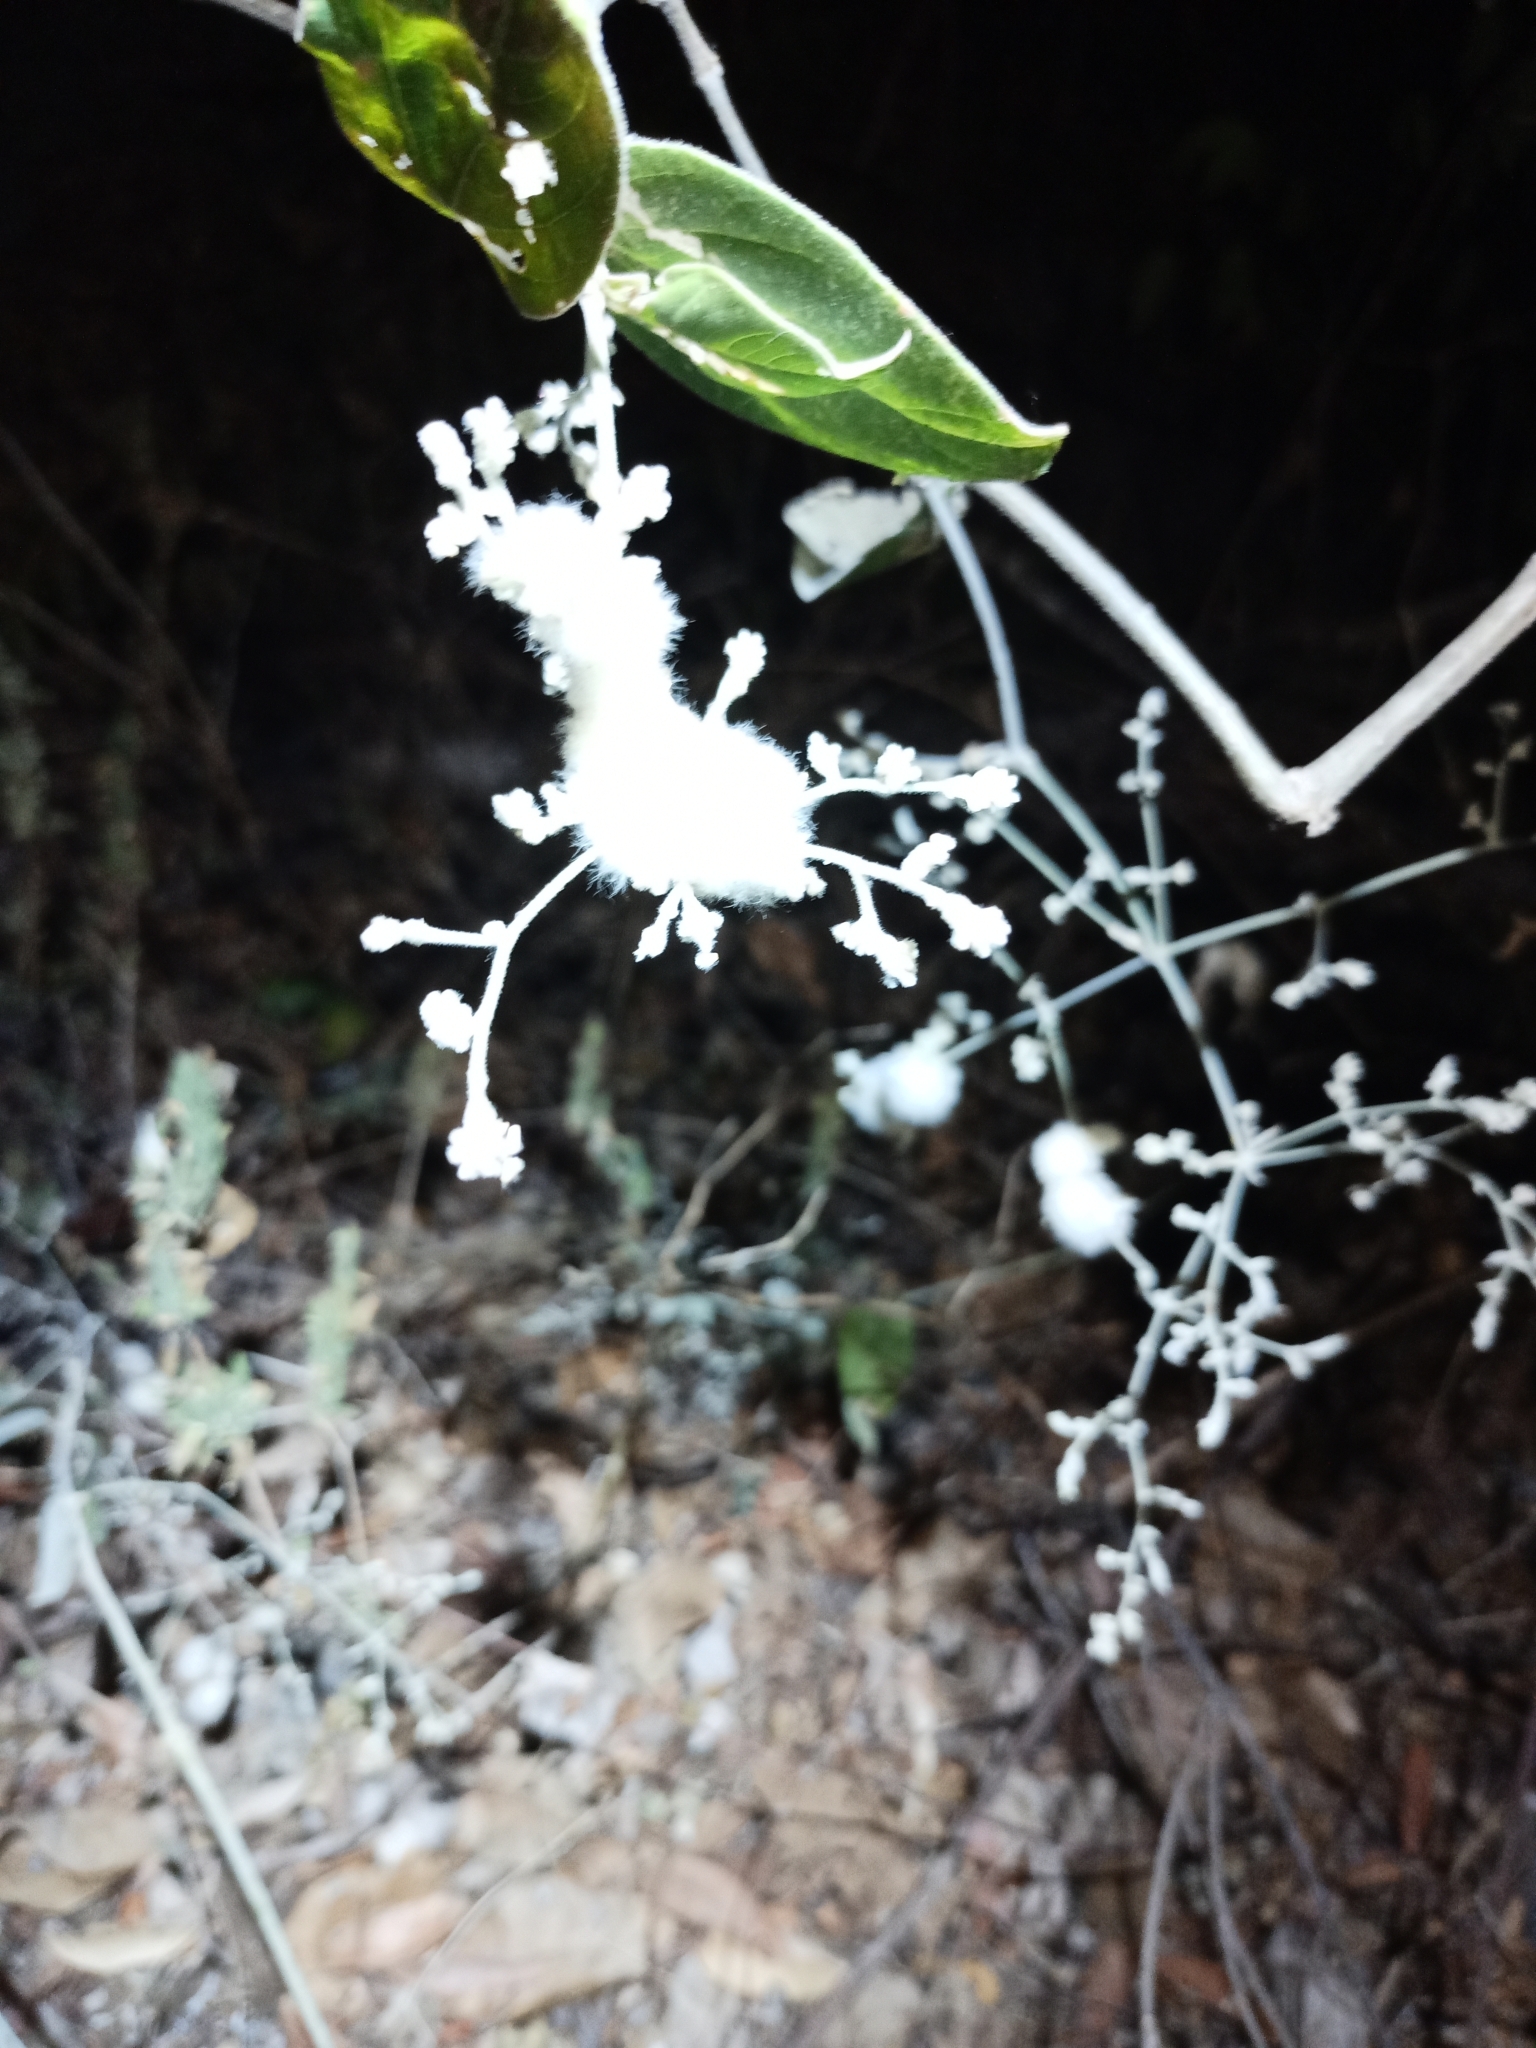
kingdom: Plantae
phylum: Tracheophyta
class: Magnoliopsida
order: Caryophyllales
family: Amaranthaceae
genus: Iresine
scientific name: Iresine latifolia
